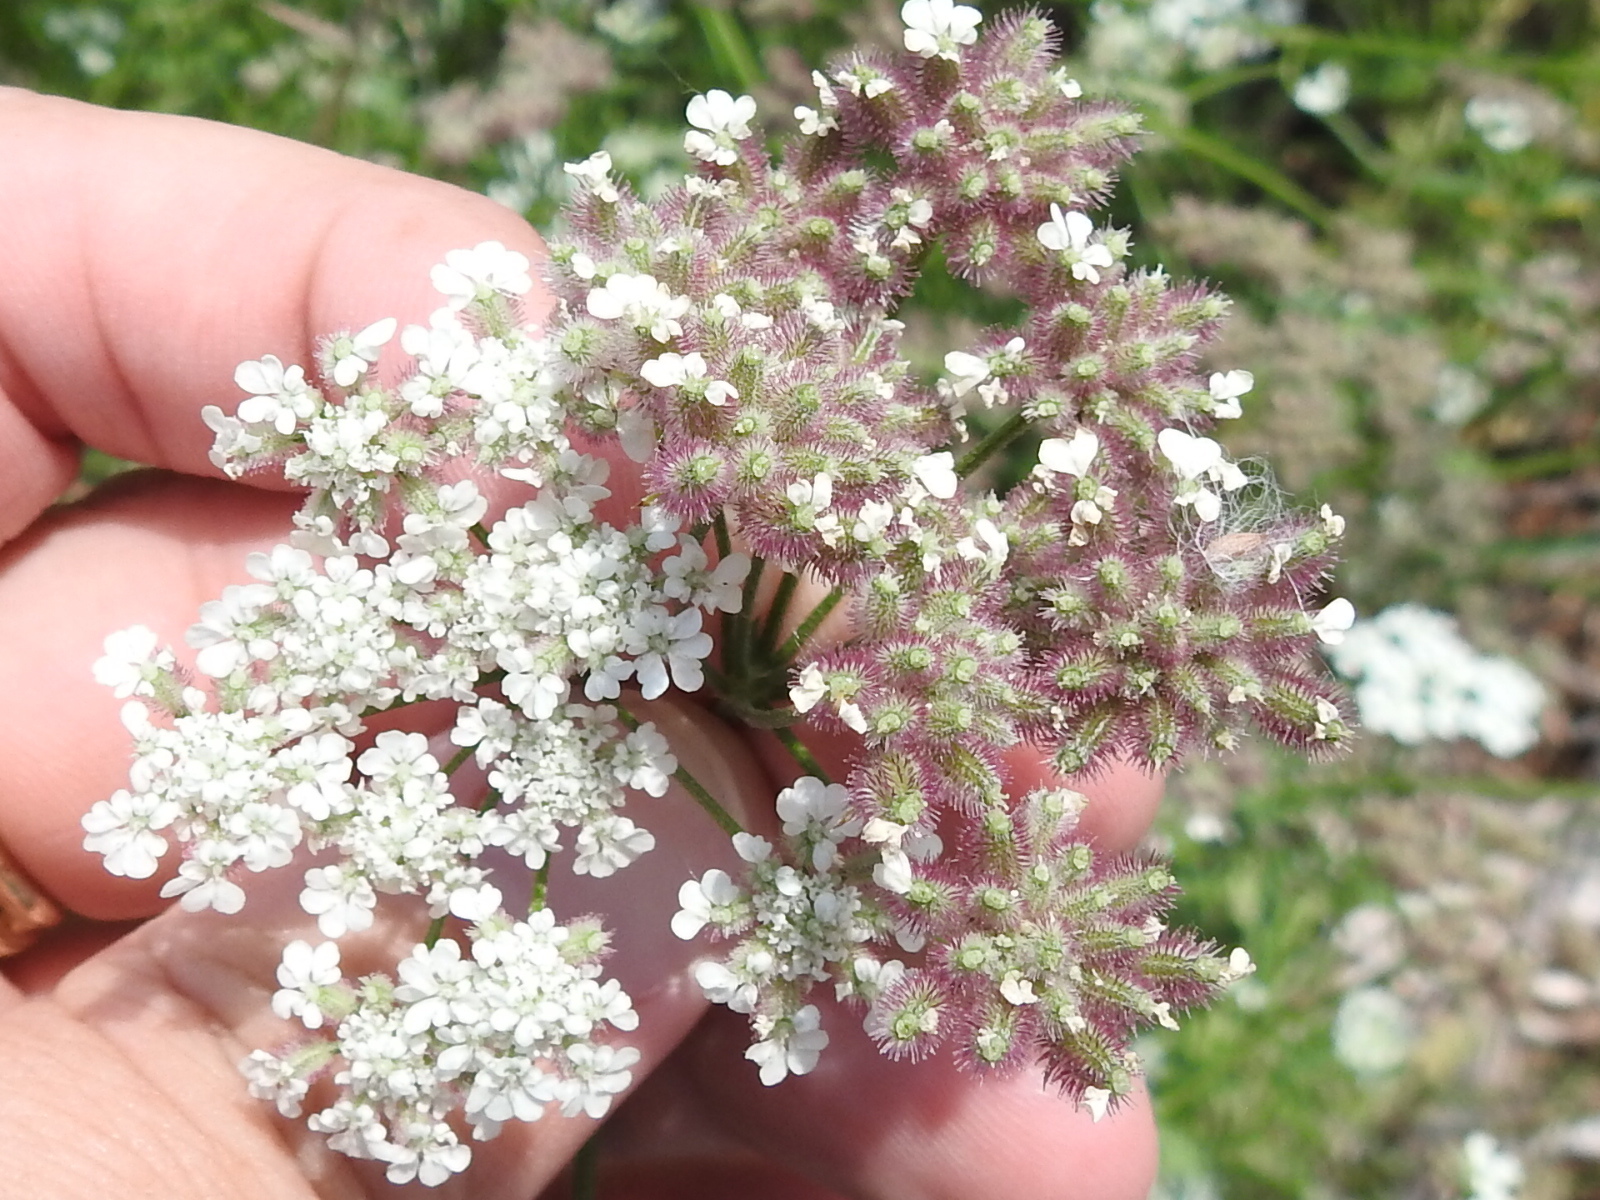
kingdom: Plantae
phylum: Tracheophyta
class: Magnoliopsida
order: Apiales
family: Apiaceae
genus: Torilis
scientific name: Torilis arvensis
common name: Spreading hedge-parsley
